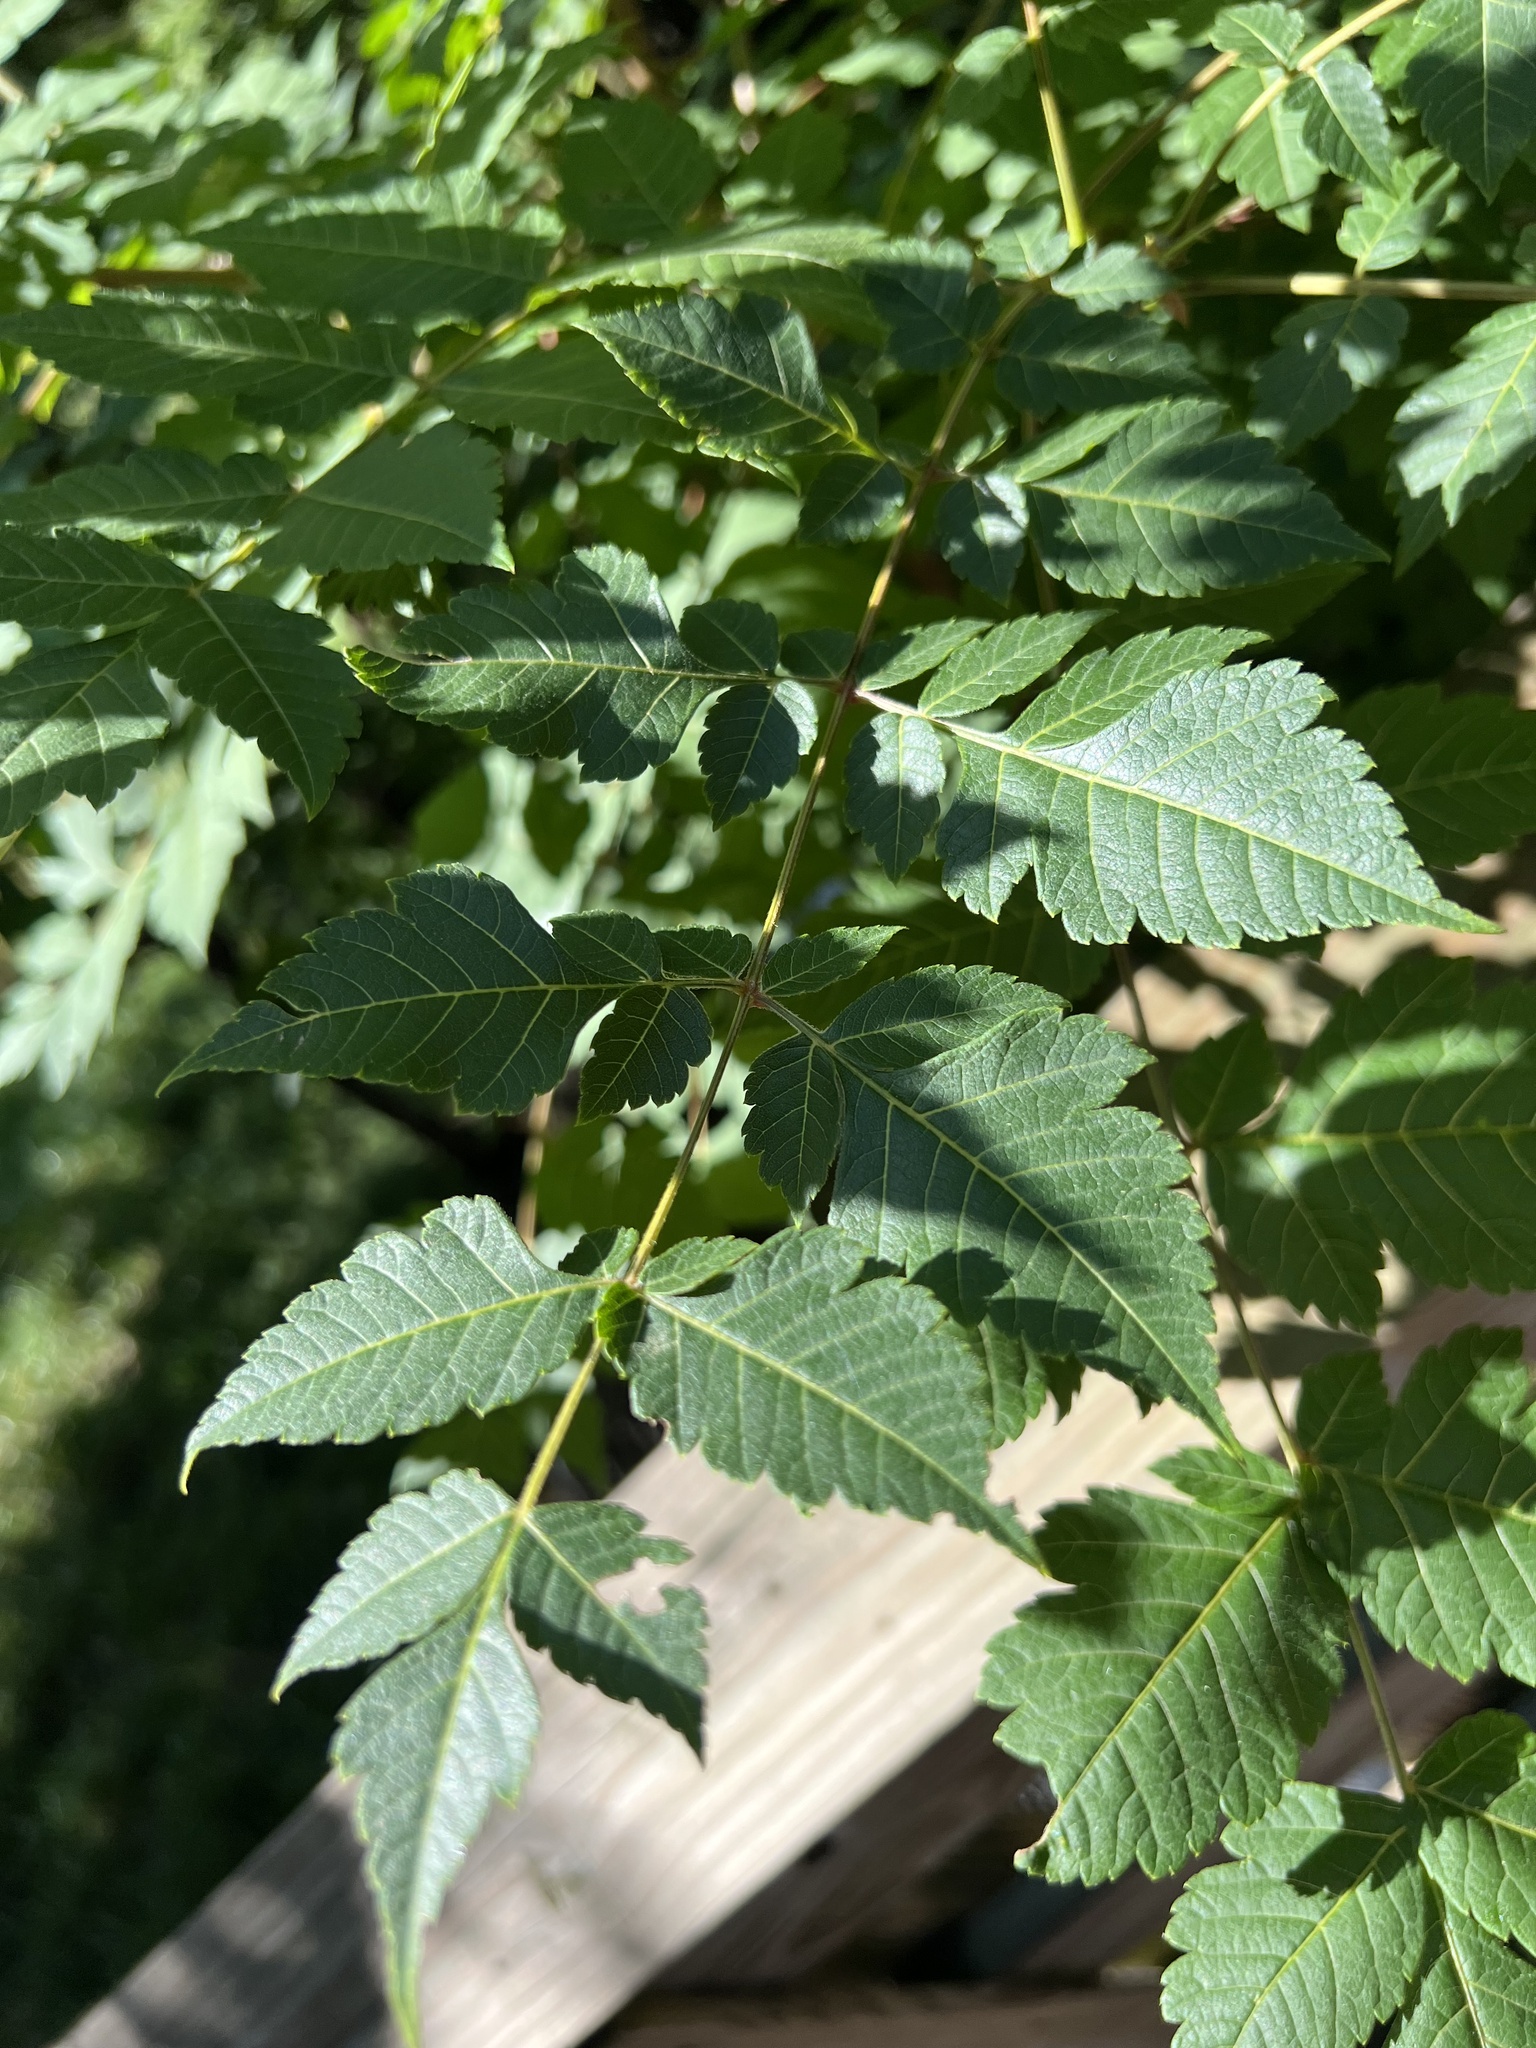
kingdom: Plantae
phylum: Tracheophyta
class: Magnoliopsida
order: Sapindales
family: Sapindaceae
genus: Koelreuteria
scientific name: Koelreuteria paniculata
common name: Pride-of-india
